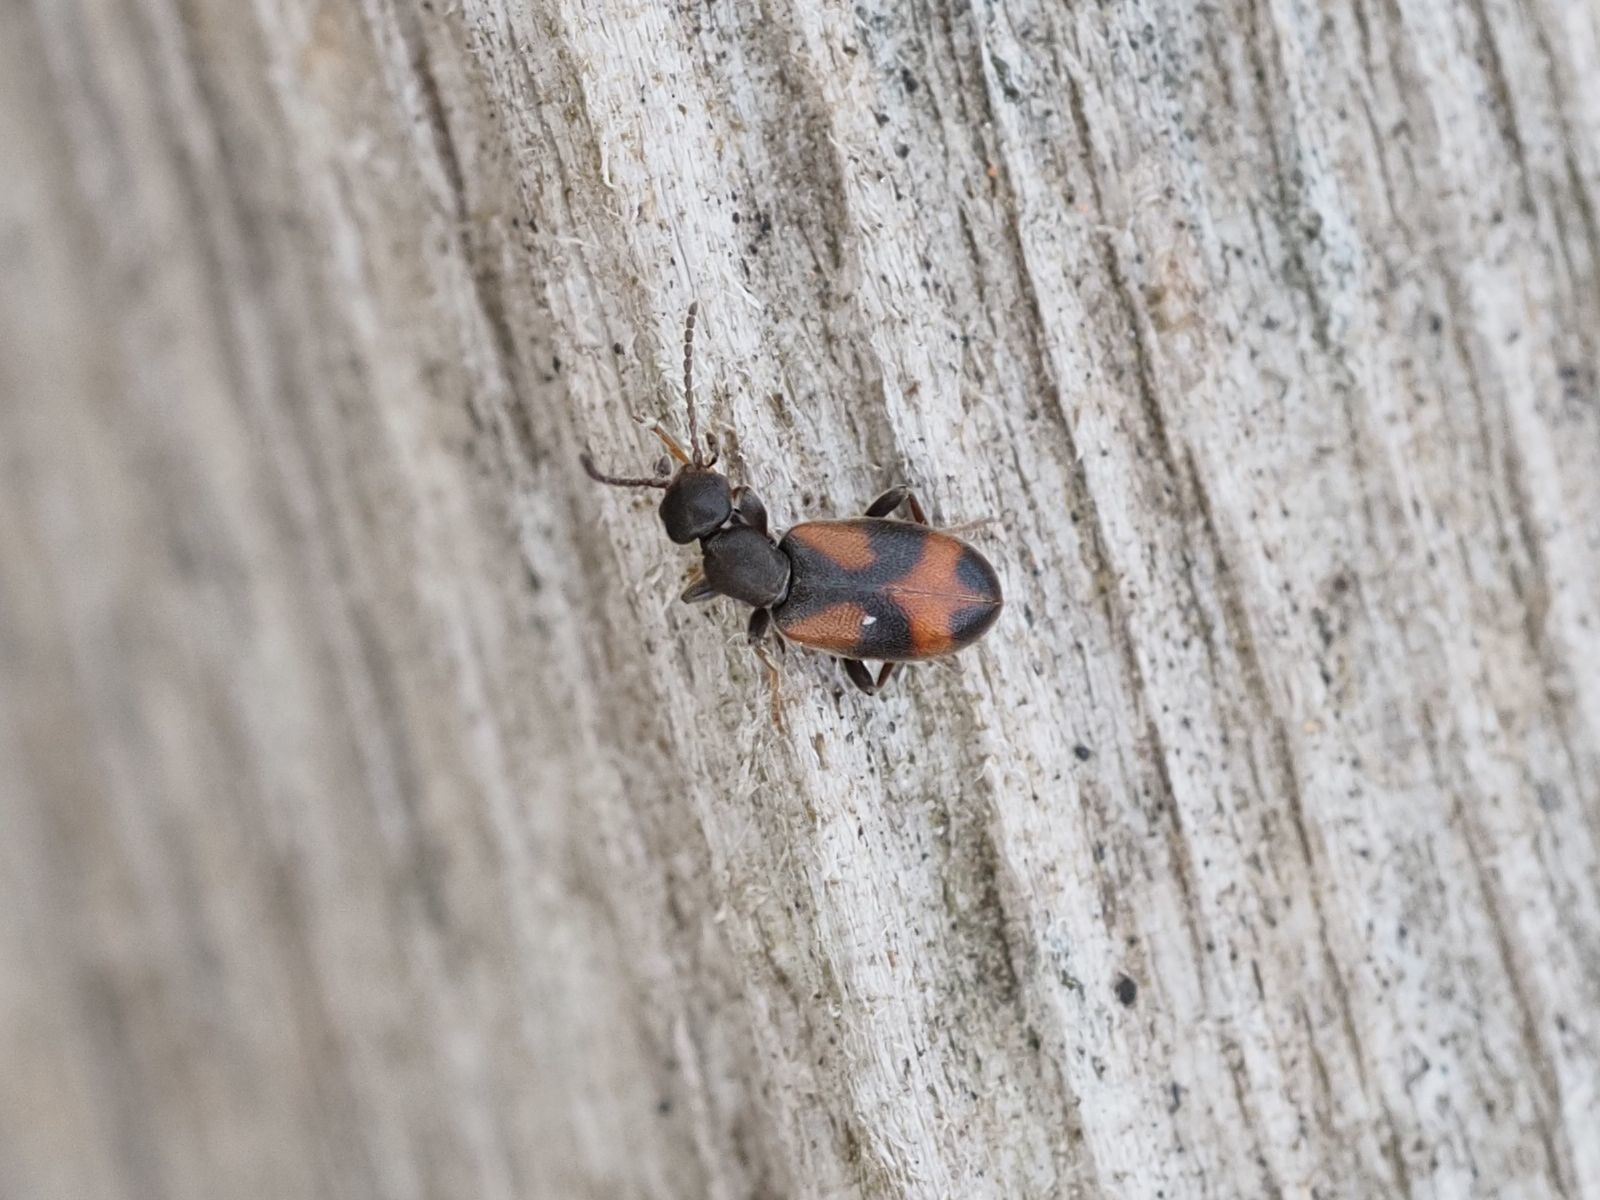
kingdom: Animalia
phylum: Arthropoda
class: Insecta
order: Coleoptera
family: Anthicidae
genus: Anthicus
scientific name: Anthicus antherinus
